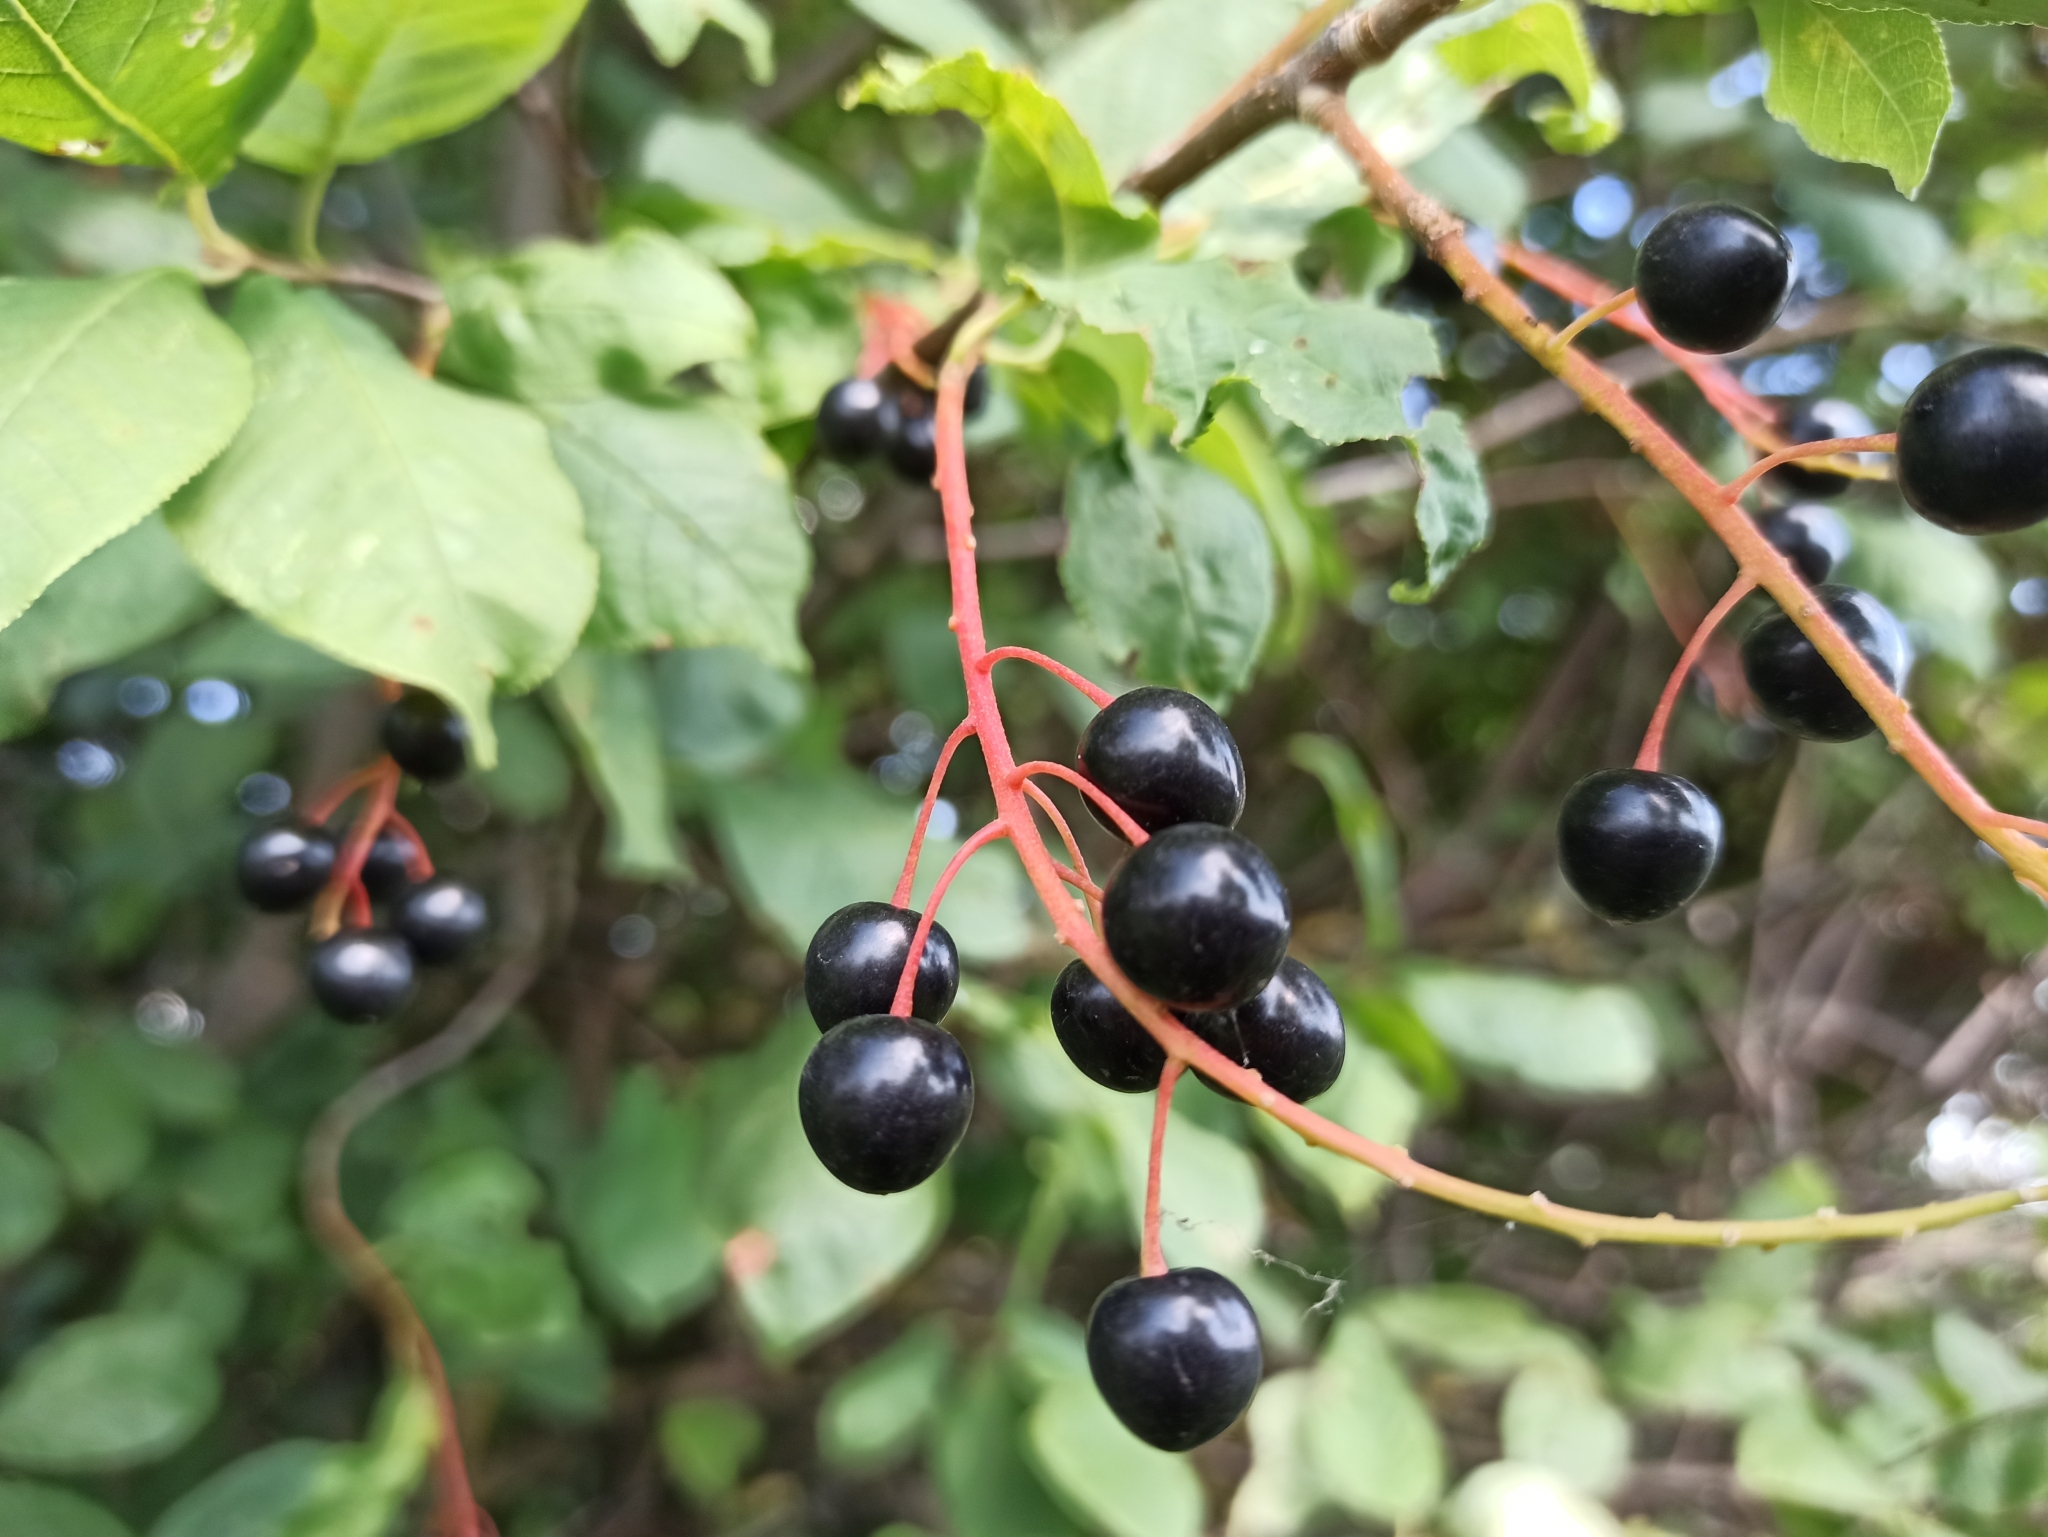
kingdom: Plantae
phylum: Tracheophyta
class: Magnoliopsida
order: Rosales
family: Rosaceae
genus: Prunus
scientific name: Prunus padus
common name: Bird cherry
